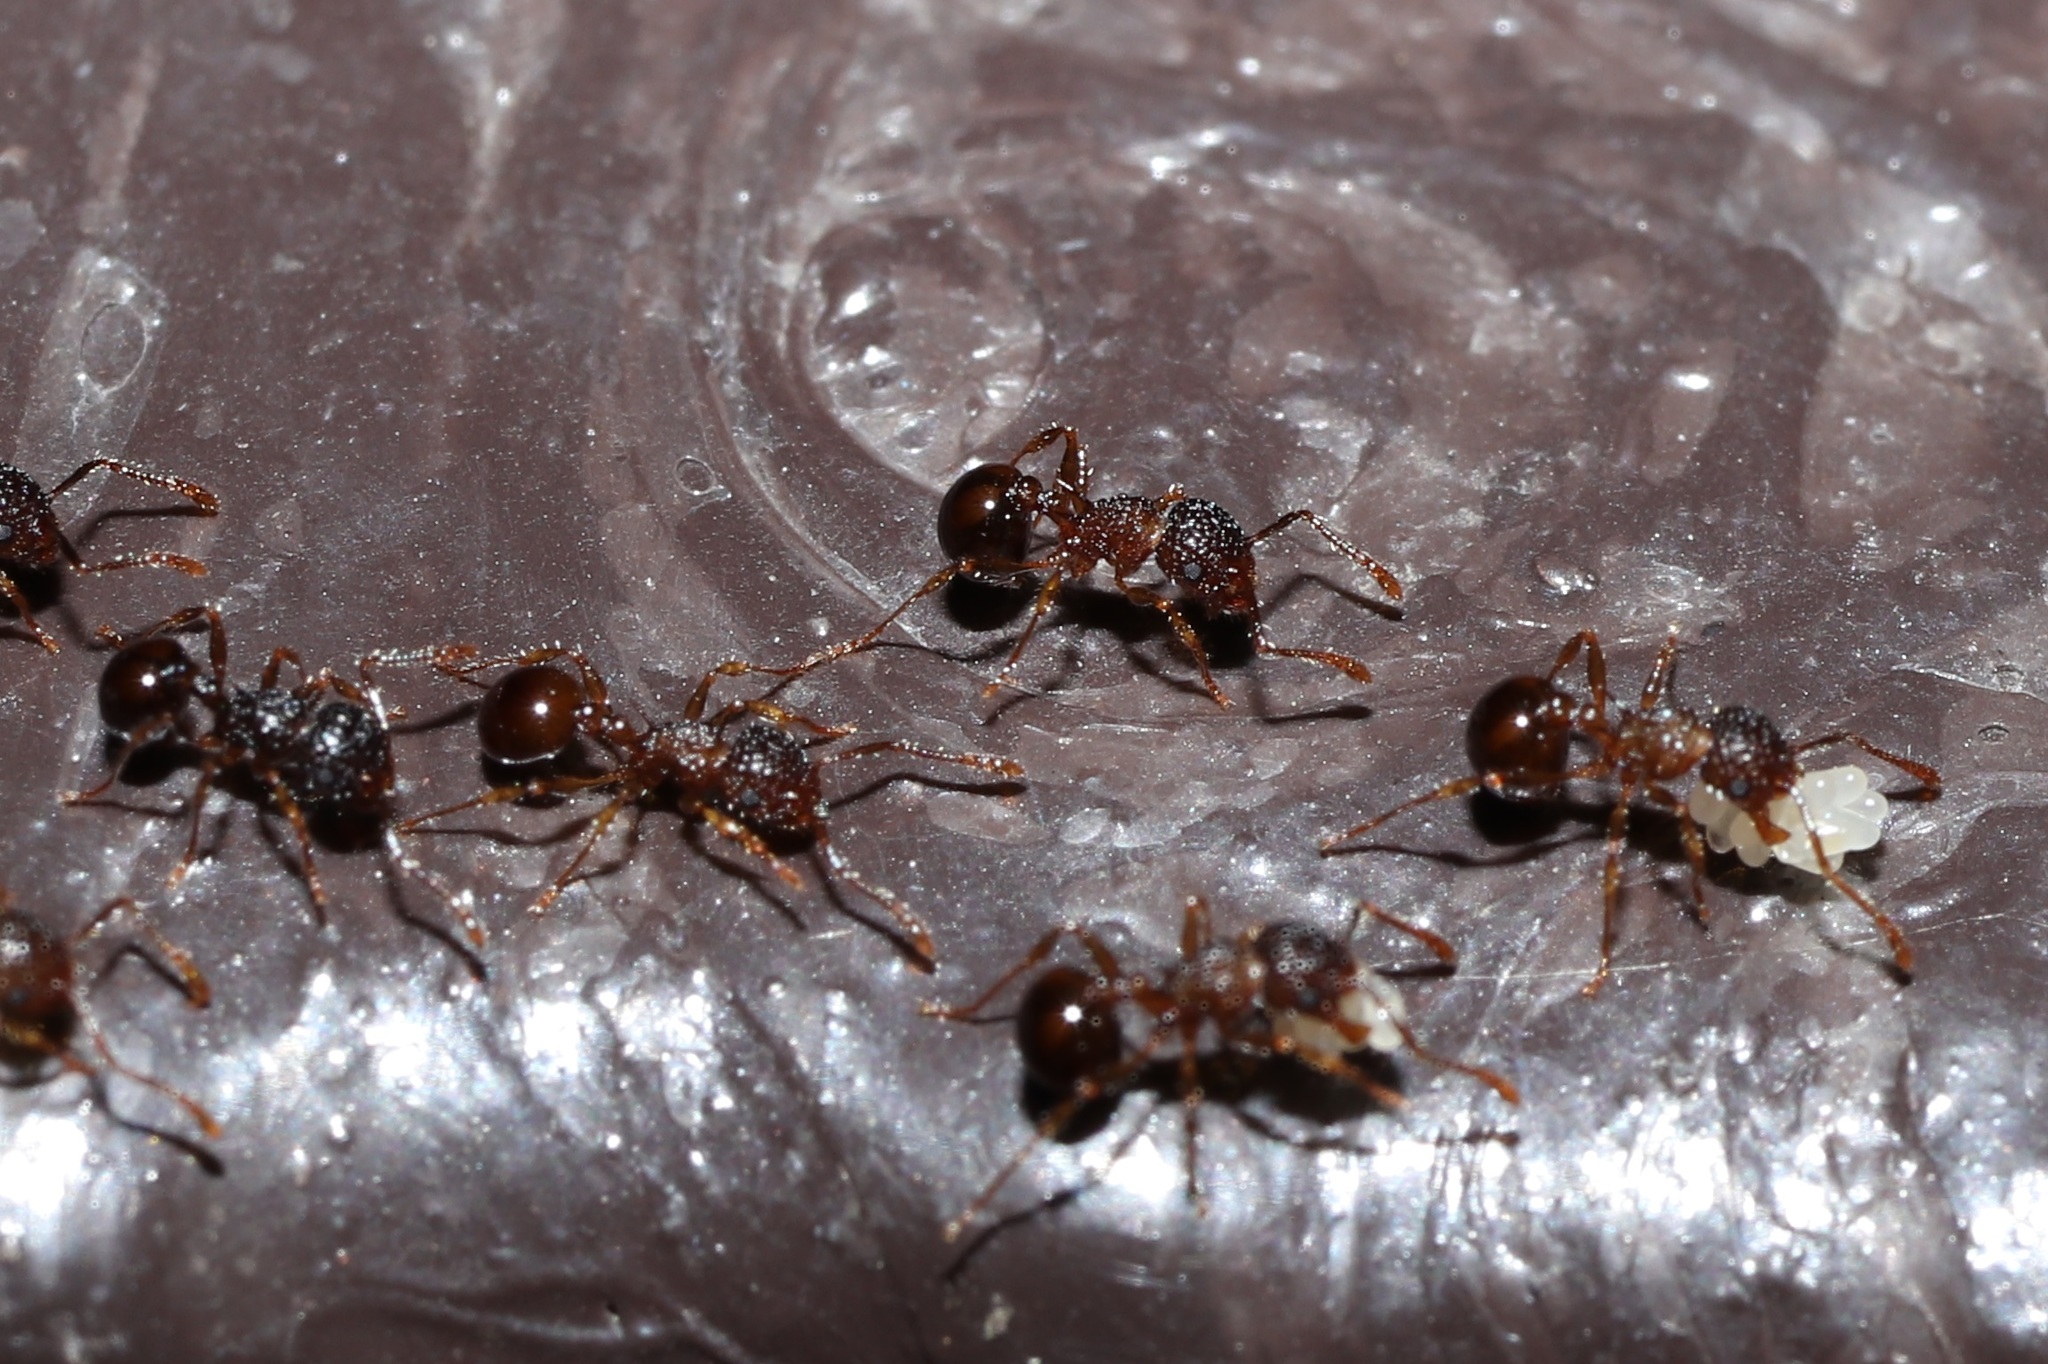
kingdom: Animalia
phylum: Arthropoda
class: Insecta
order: Hymenoptera
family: Formicidae
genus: Pristomyrmex
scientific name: Pristomyrmex punctatus
